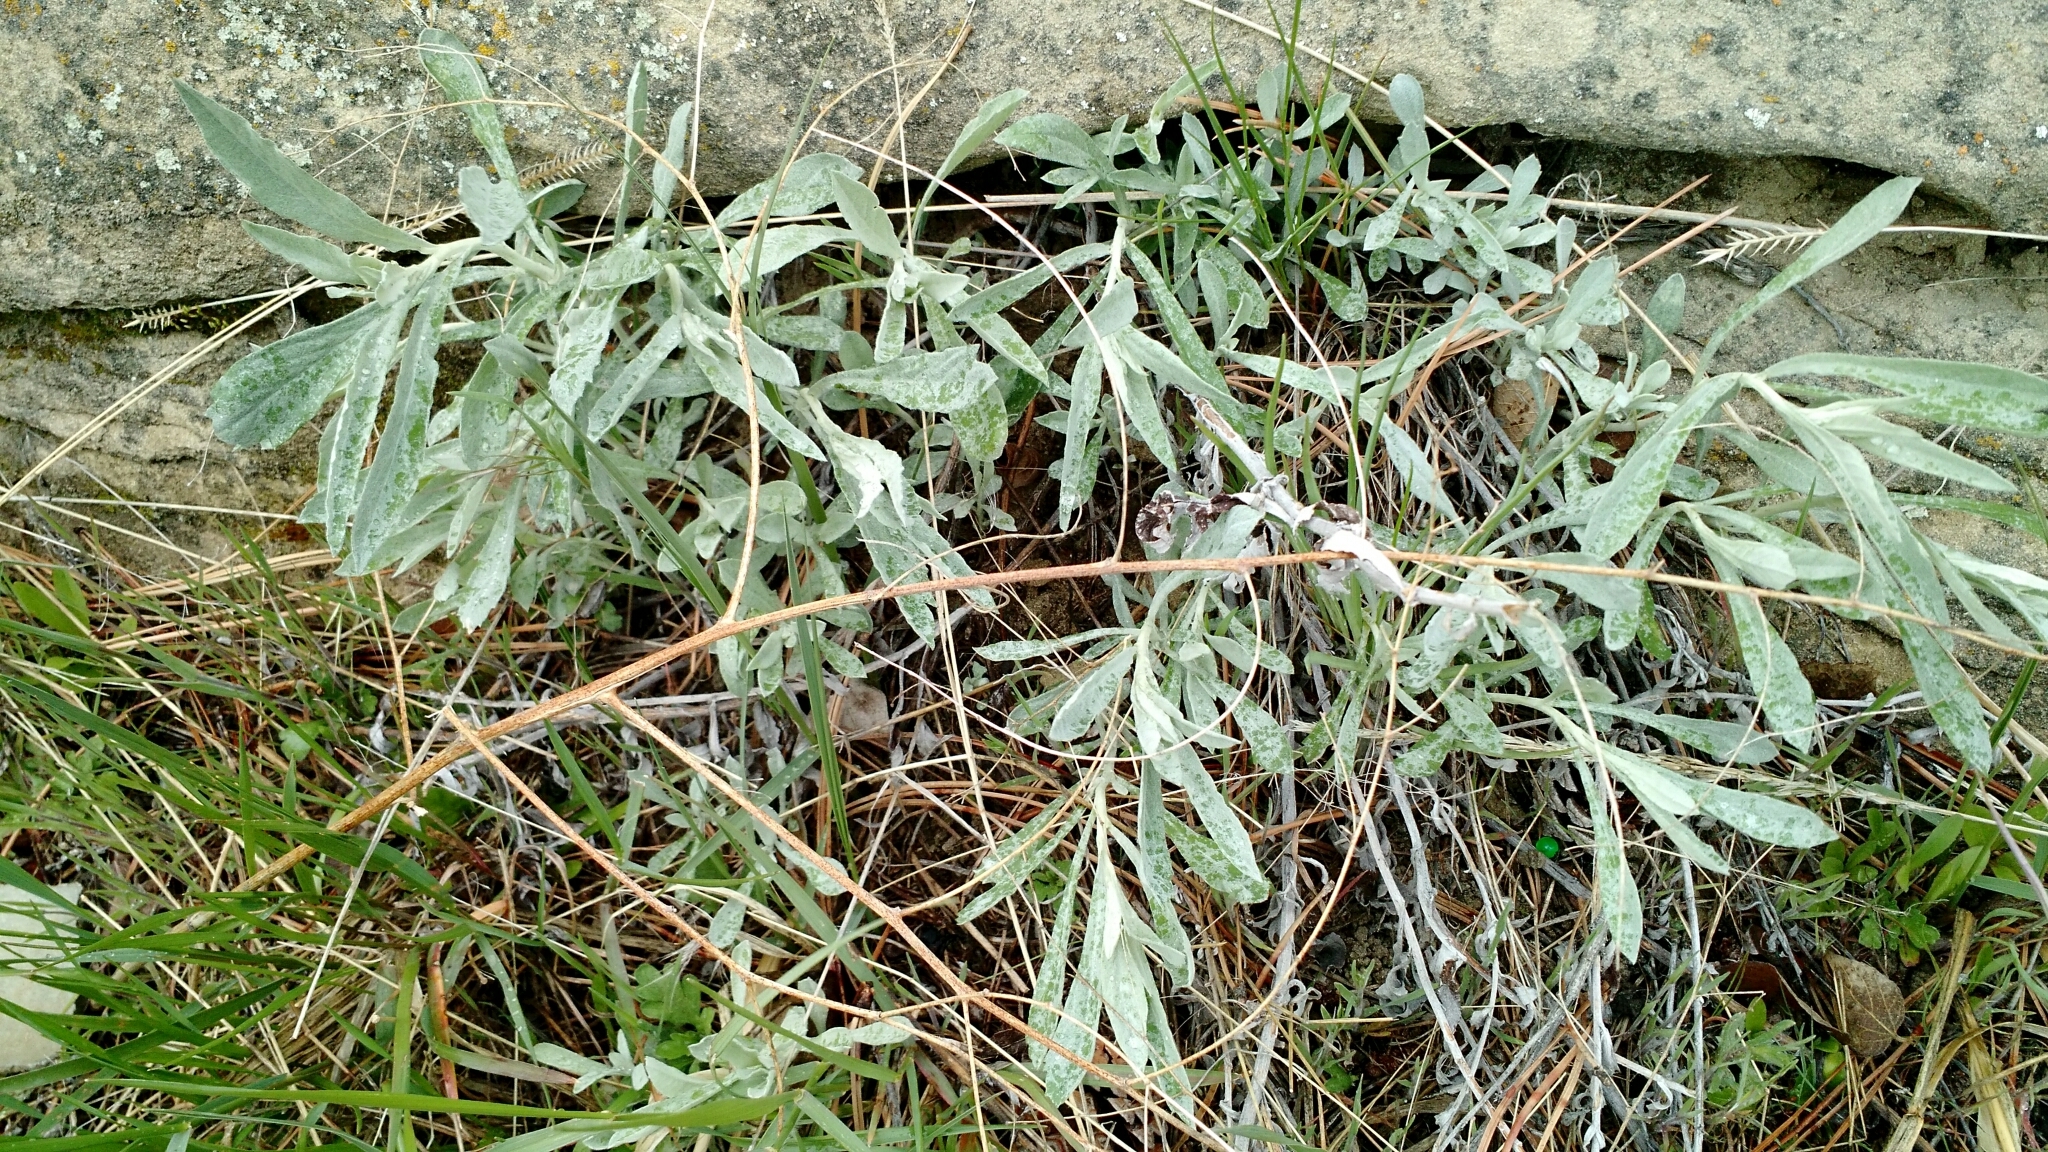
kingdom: Plantae
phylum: Tracheophyta
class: Magnoliopsida
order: Asterales
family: Asteraceae
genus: Artemisia
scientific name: Artemisia ludoviciana
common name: Western mugwort
